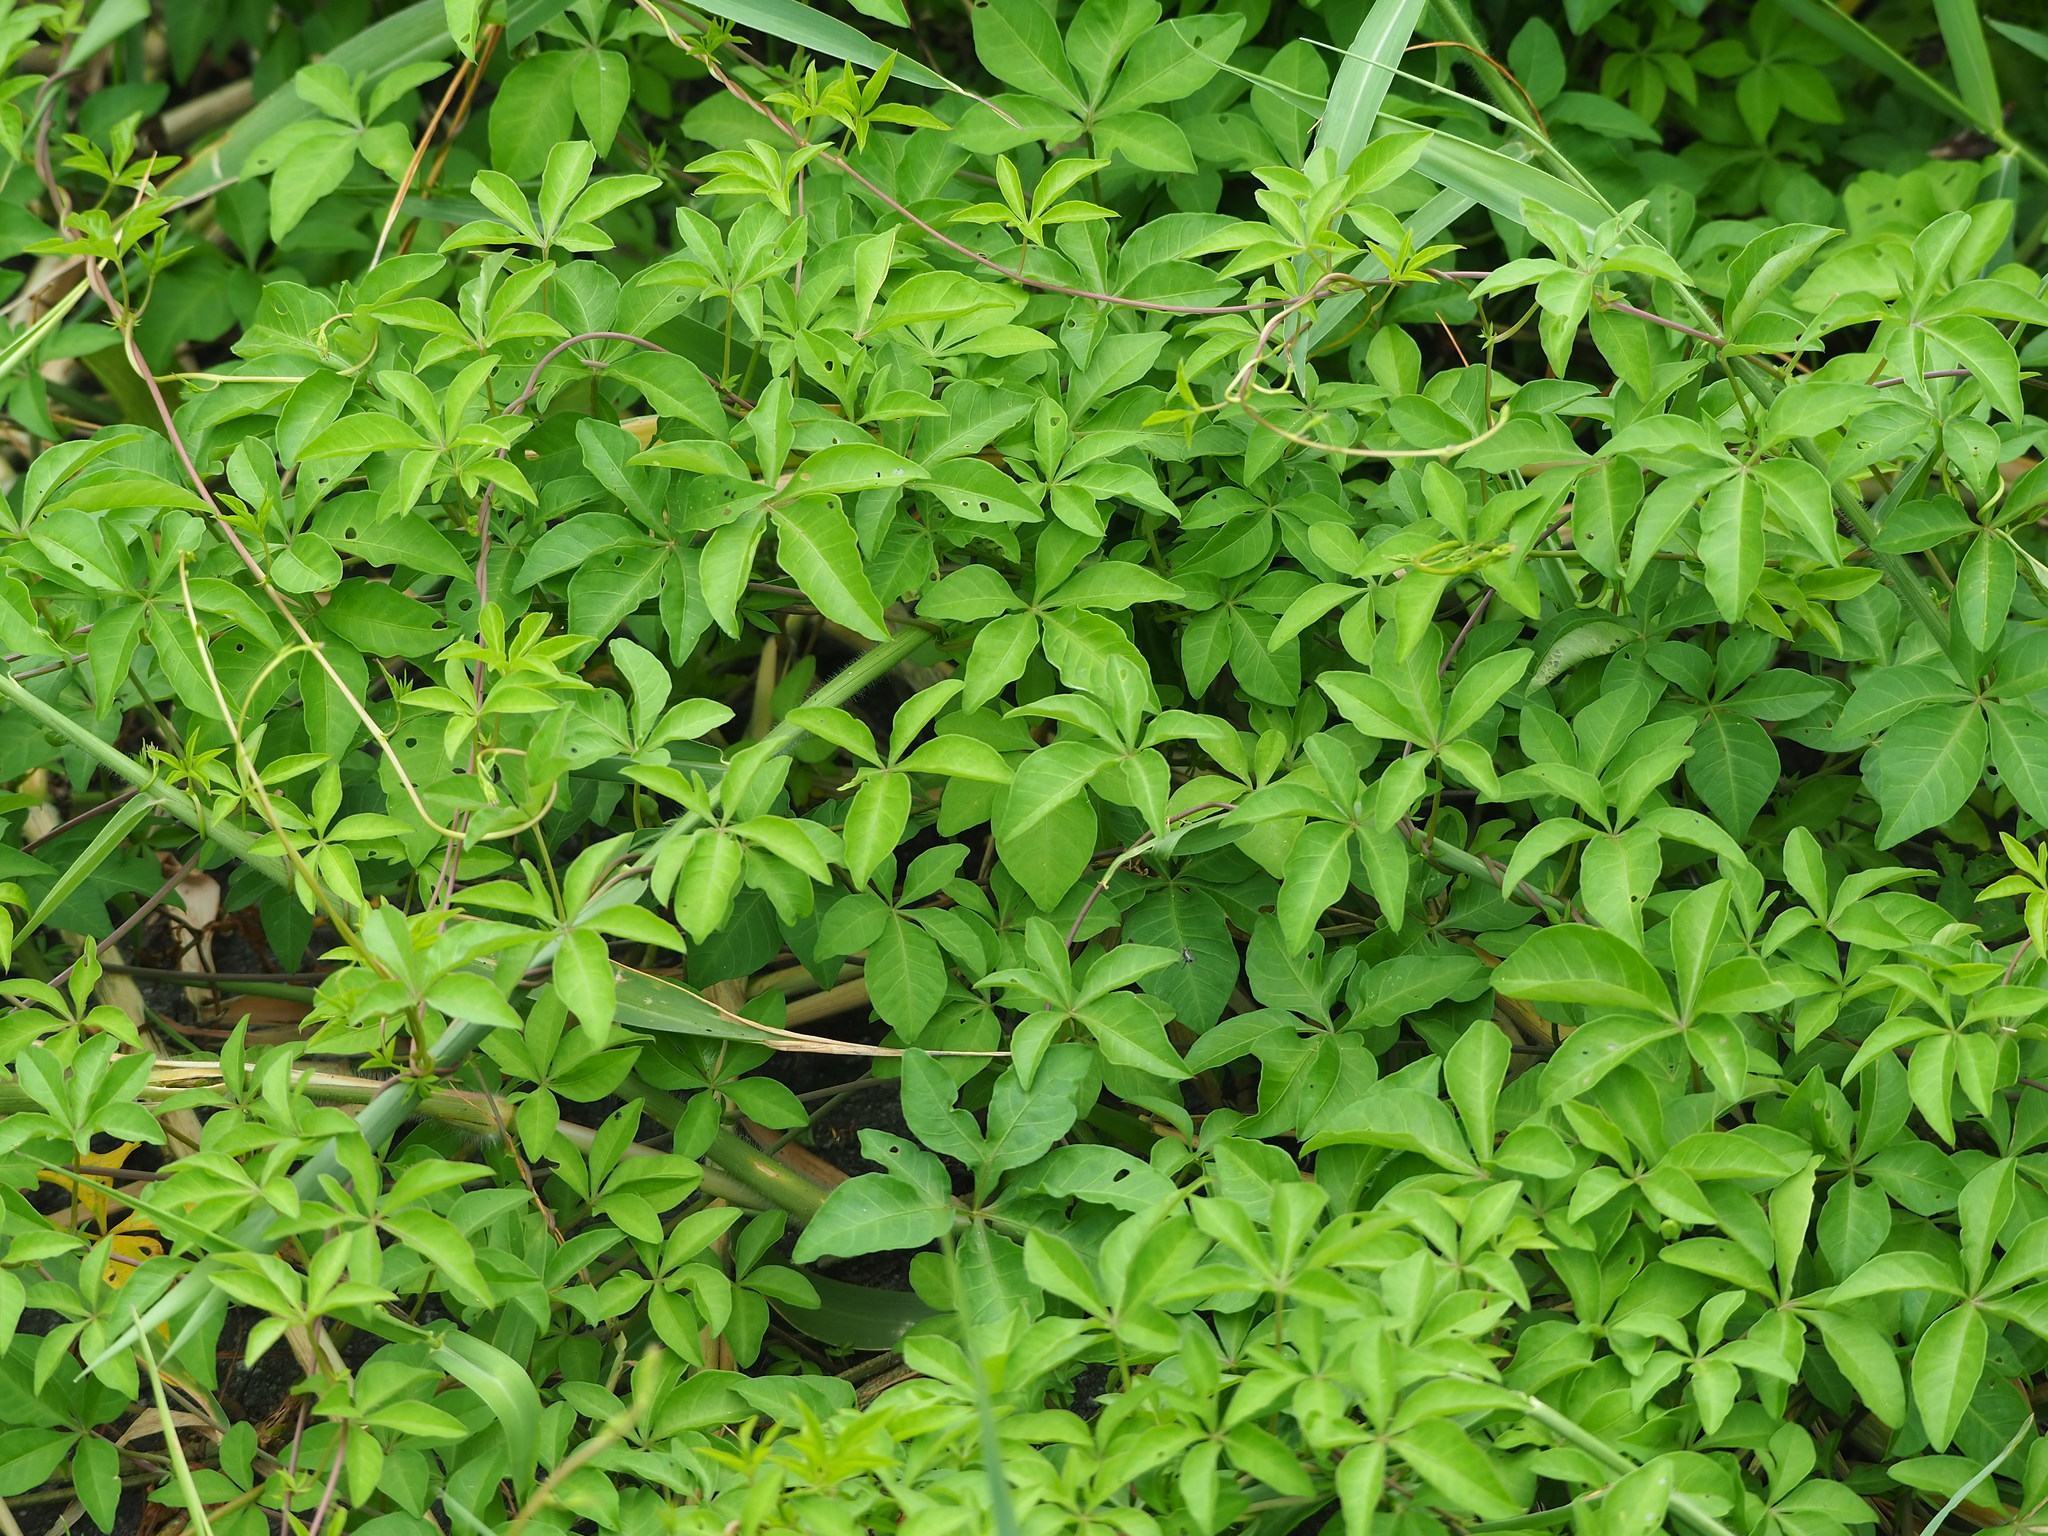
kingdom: Plantae
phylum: Tracheophyta
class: Magnoliopsida
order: Solanales
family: Convolvulaceae
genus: Ipomoea
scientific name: Ipomoea cairica
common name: Mile a minute vine
